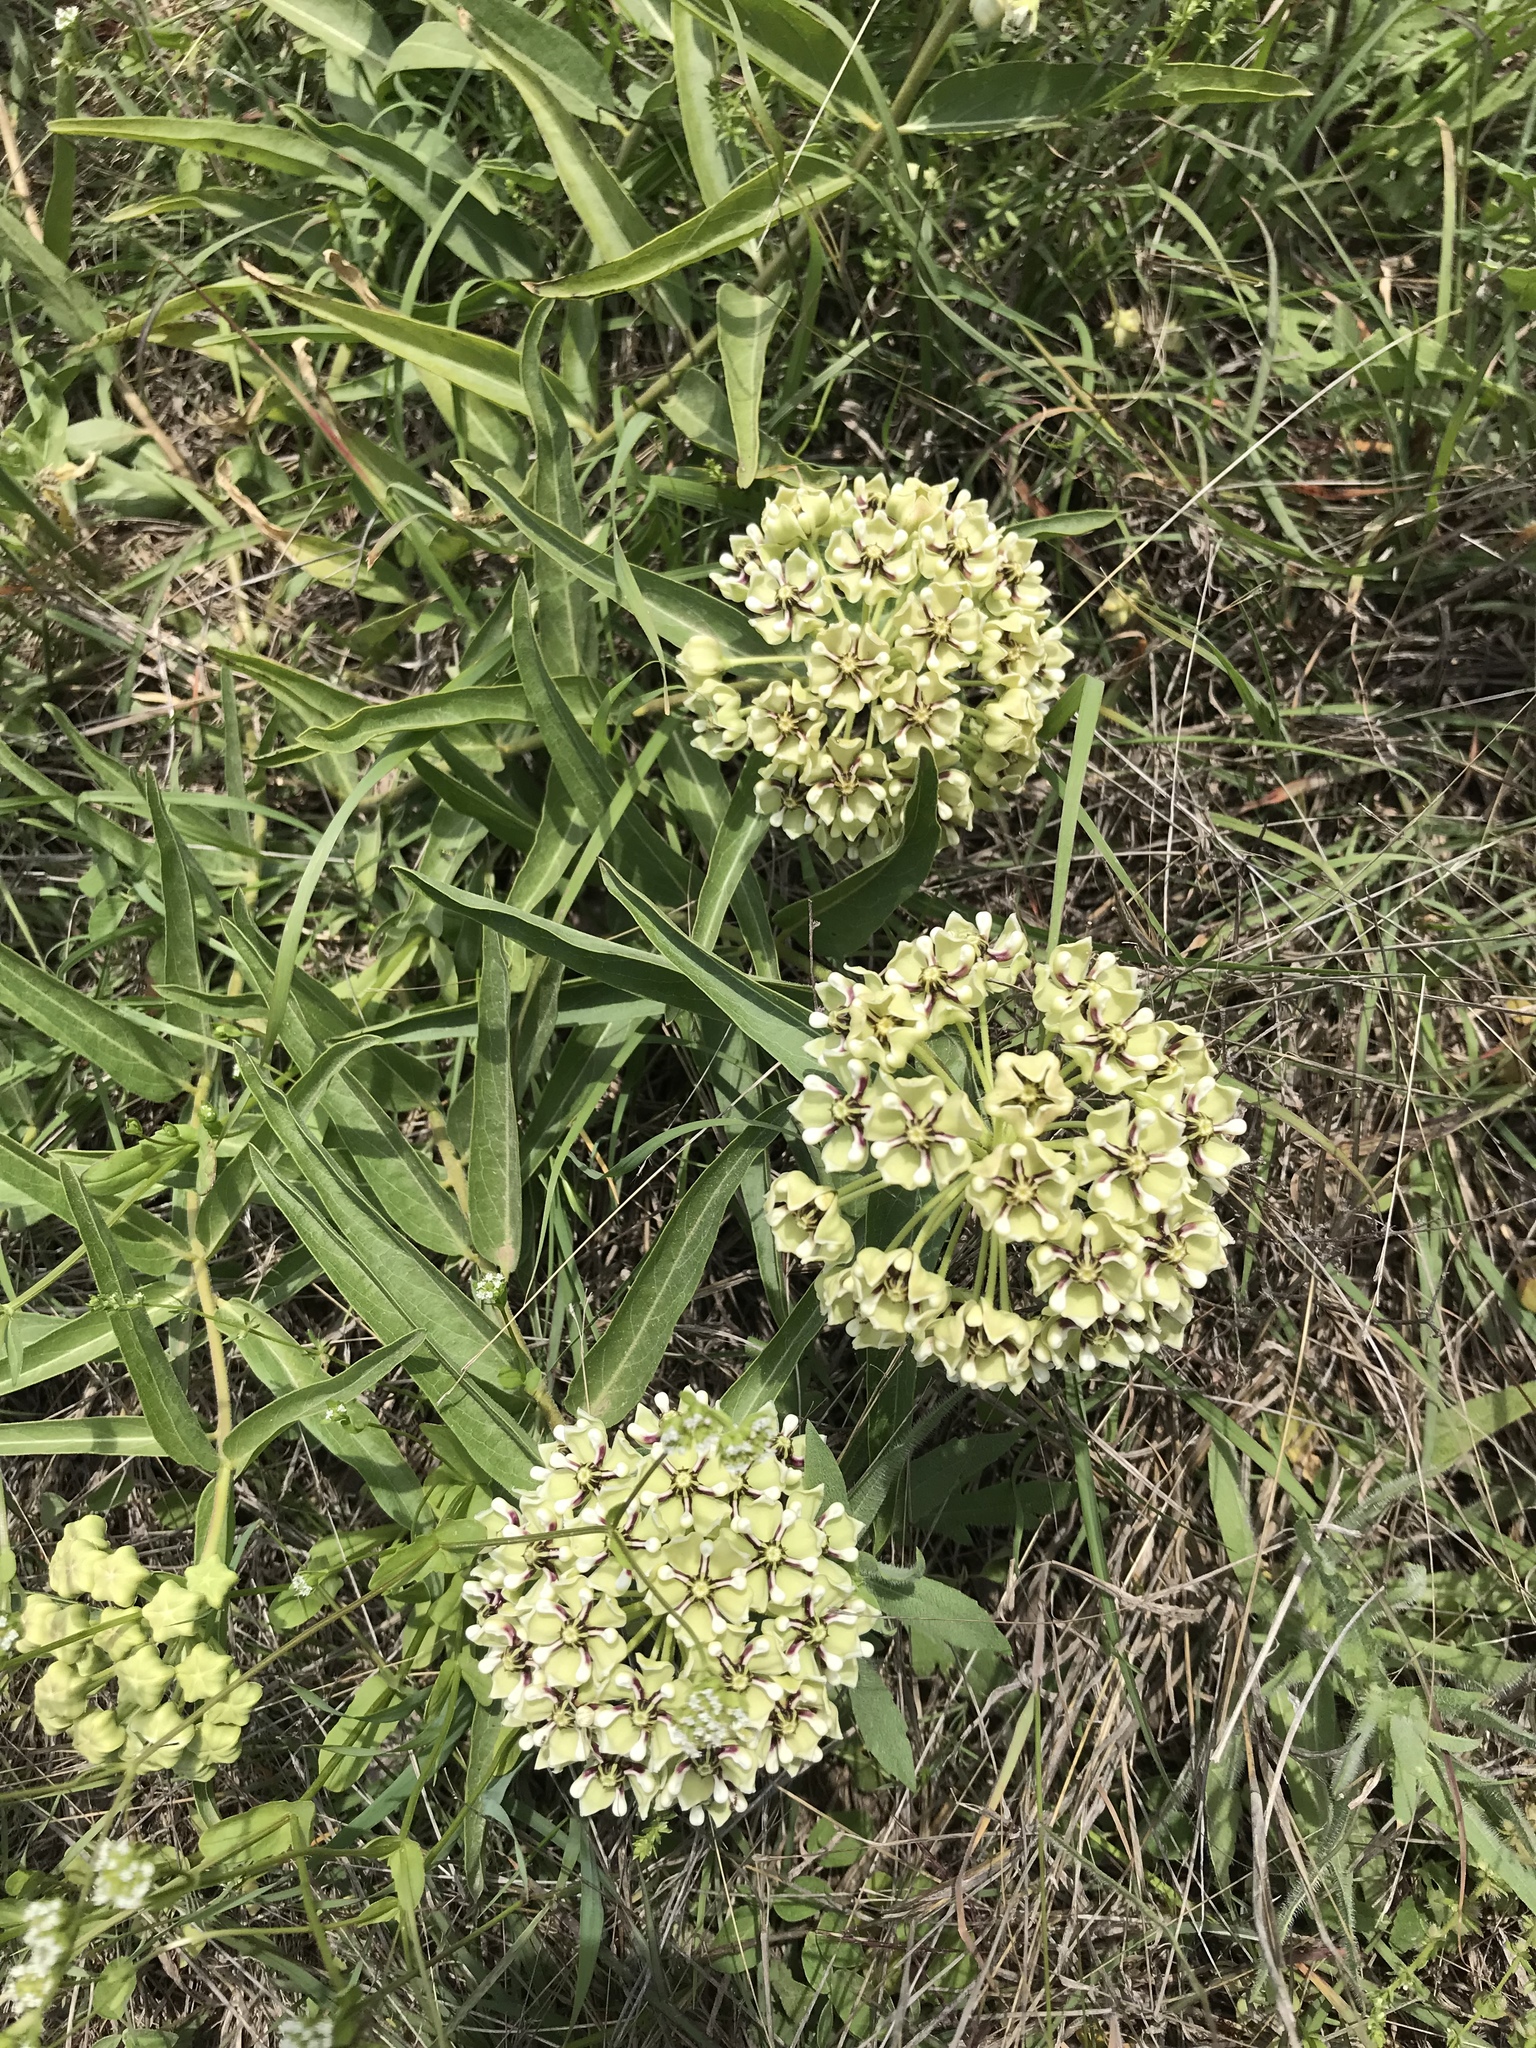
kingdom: Plantae
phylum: Tracheophyta
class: Magnoliopsida
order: Gentianales
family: Apocynaceae
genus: Asclepias
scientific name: Asclepias asperula
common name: Antelope horns
